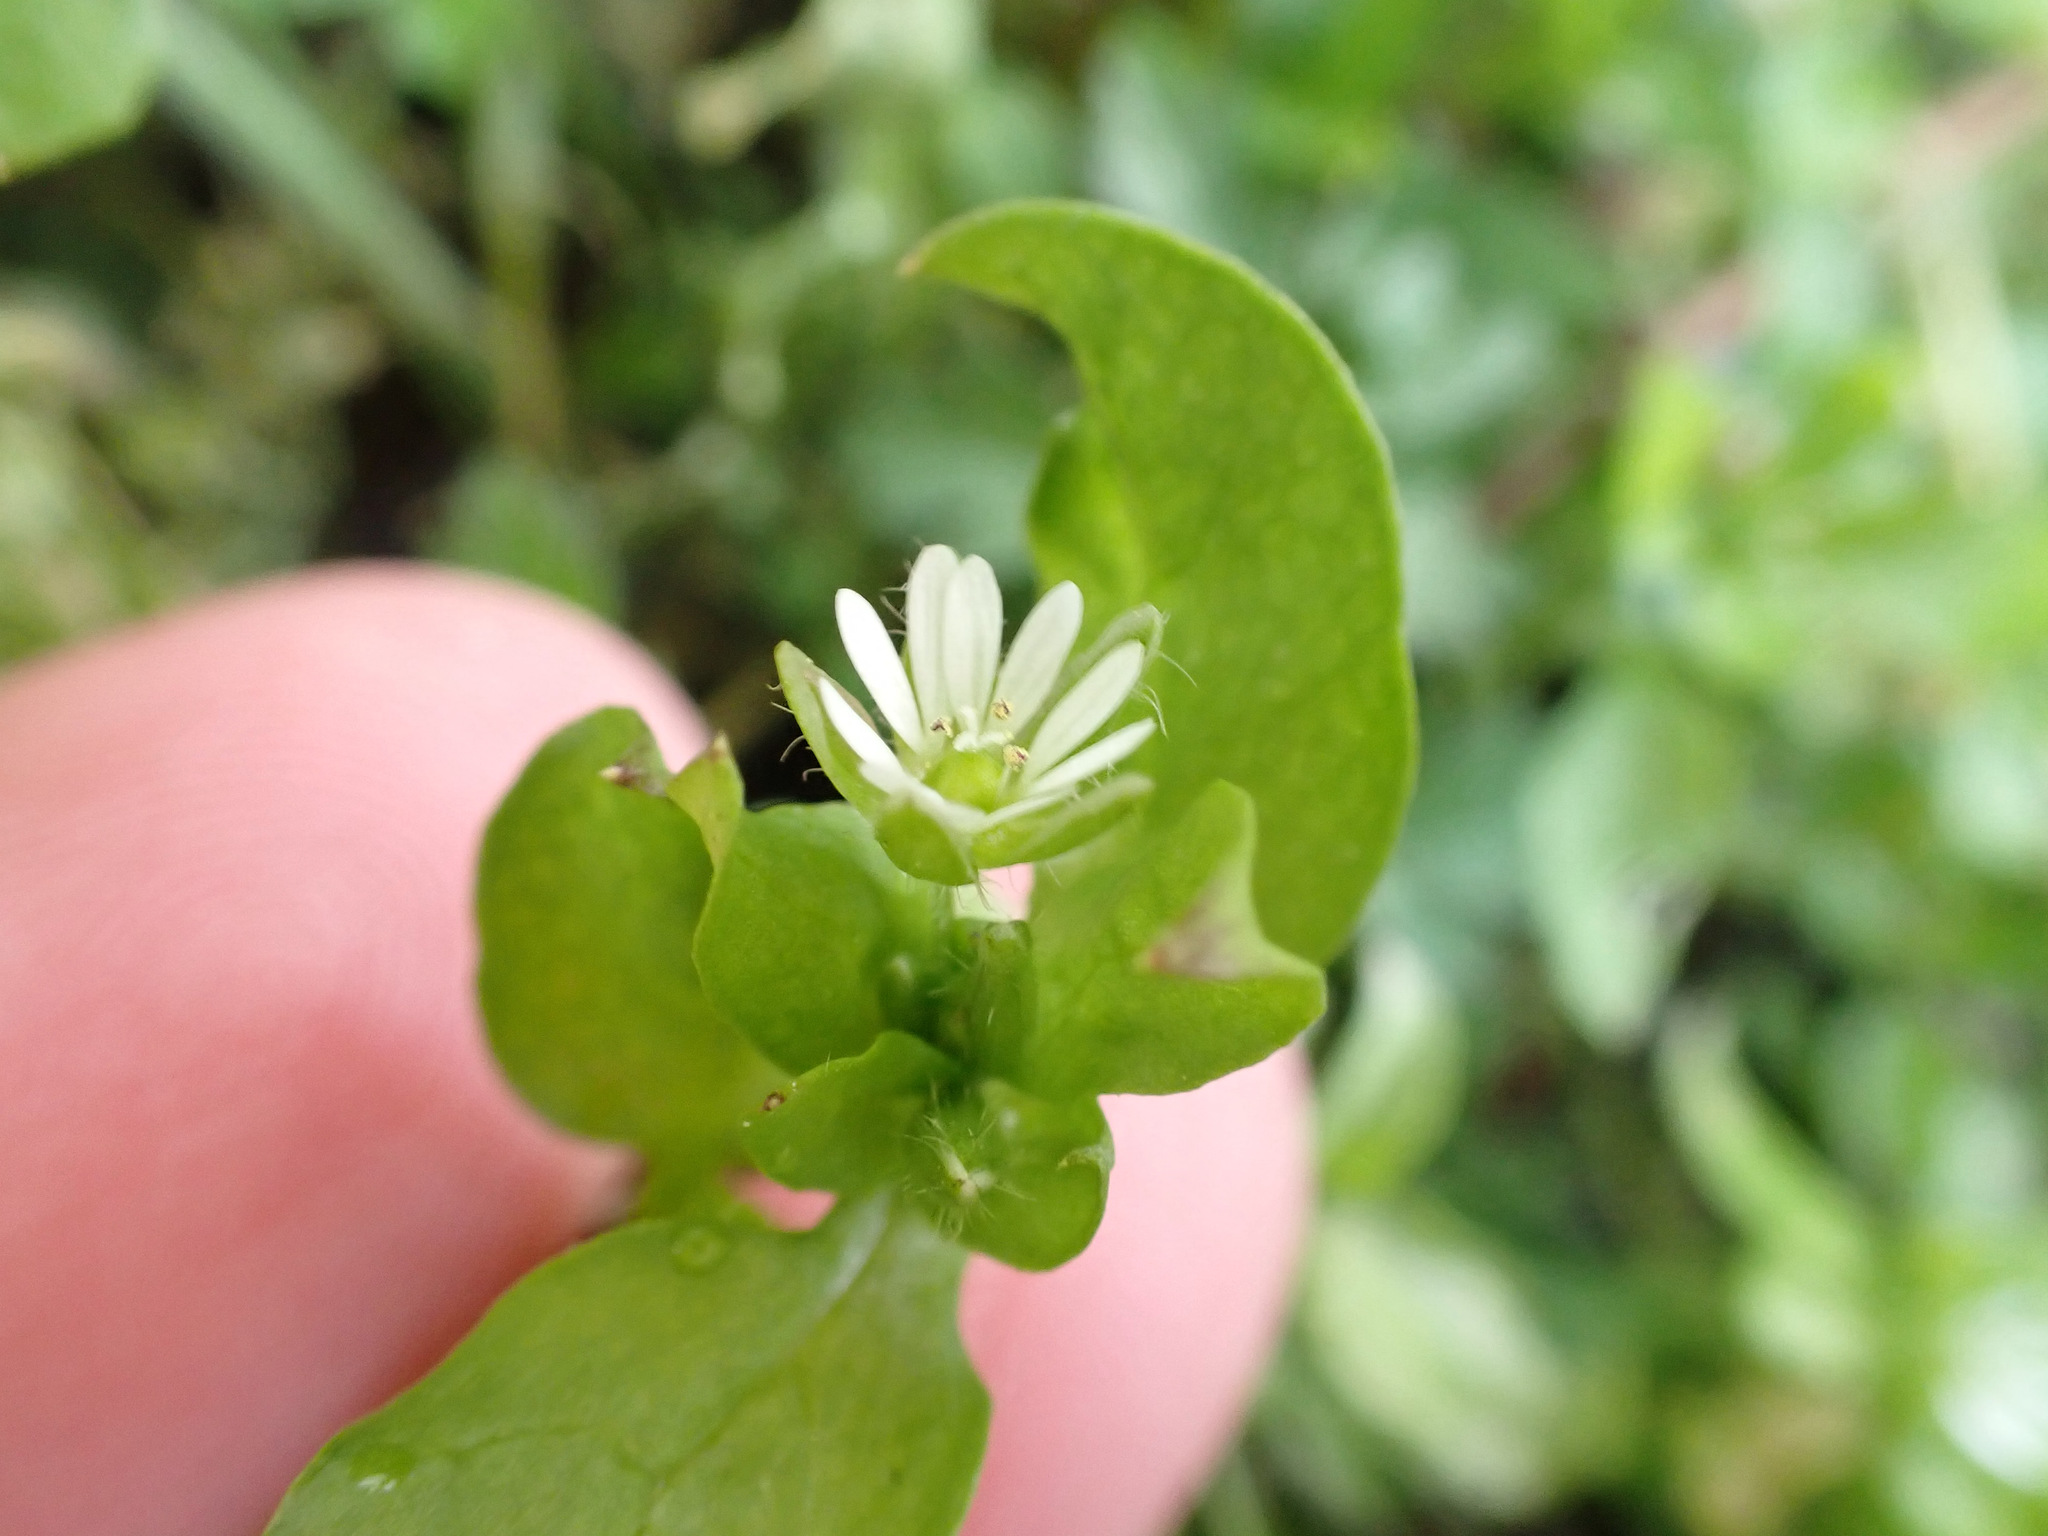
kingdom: Plantae
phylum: Tracheophyta
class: Magnoliopsida
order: Caryophyllales
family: Caryophyllaceae
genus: Stellaria
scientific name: Stellaria media
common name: Common chickweed
